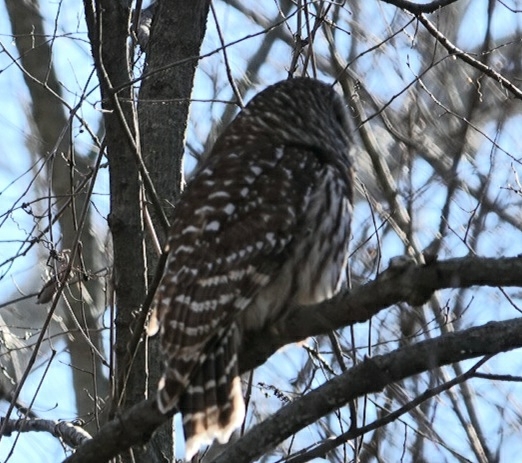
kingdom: Animalia
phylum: Chordata
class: Aves
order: Strigiformes
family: Strigidae
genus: Strix
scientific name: Strix varia
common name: Barred owl
